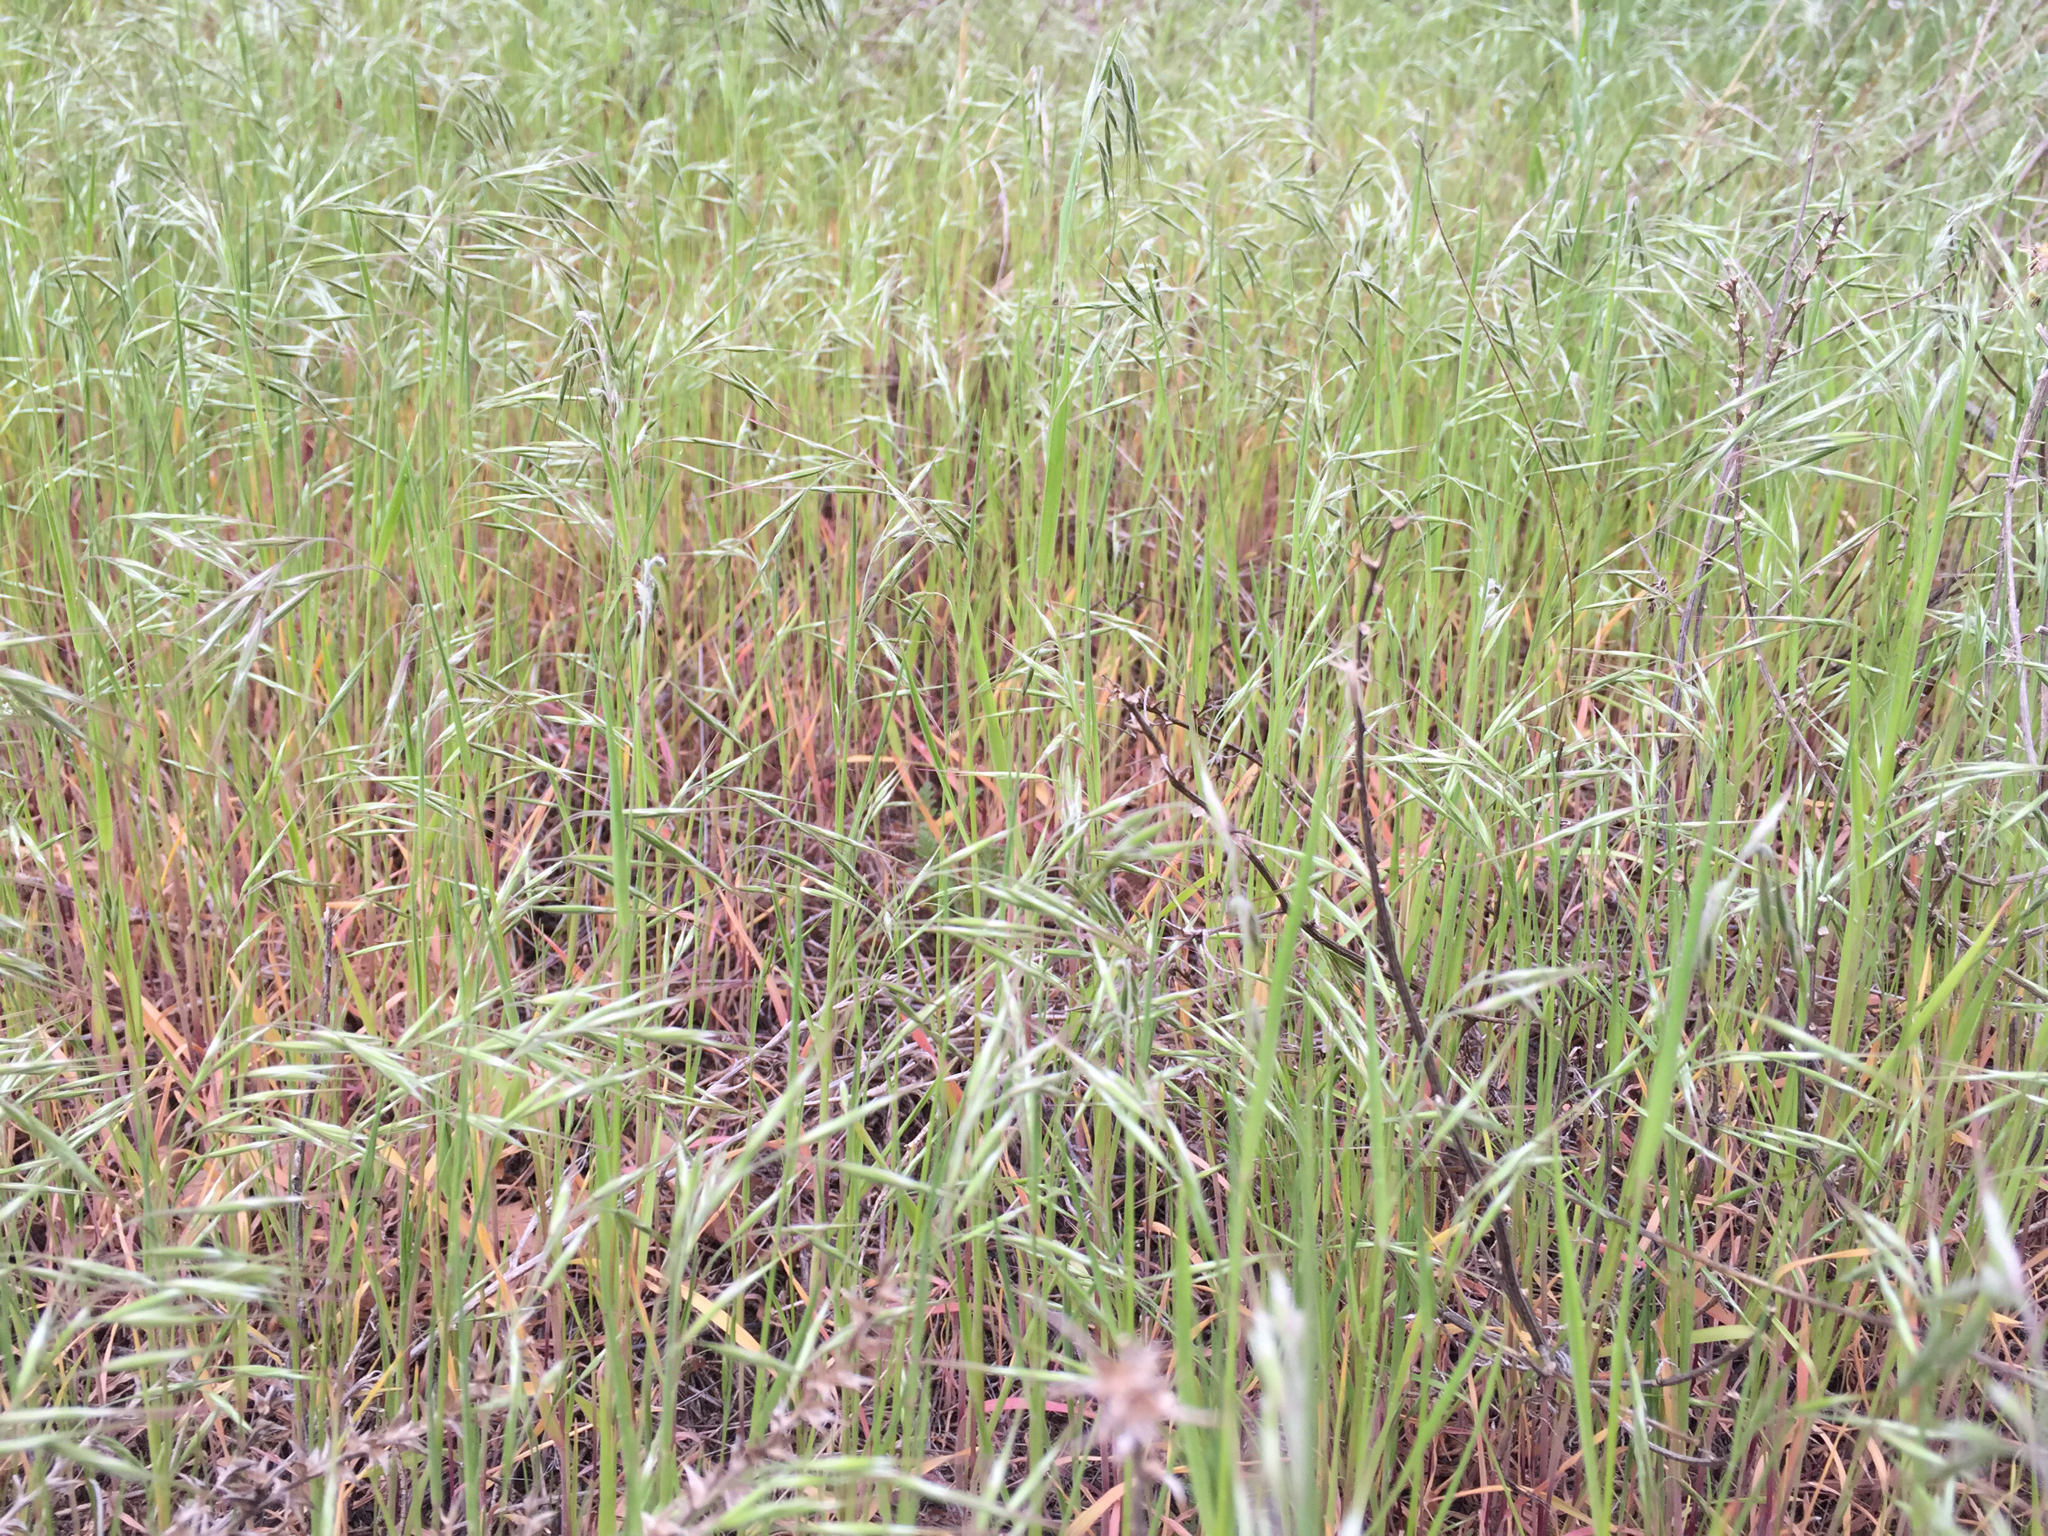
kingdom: Plantae
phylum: Tracheophyta
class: Liliopsida
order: Poales
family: Poaceae
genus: Bromus
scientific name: Bromus tectorum
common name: Cheatgrass
